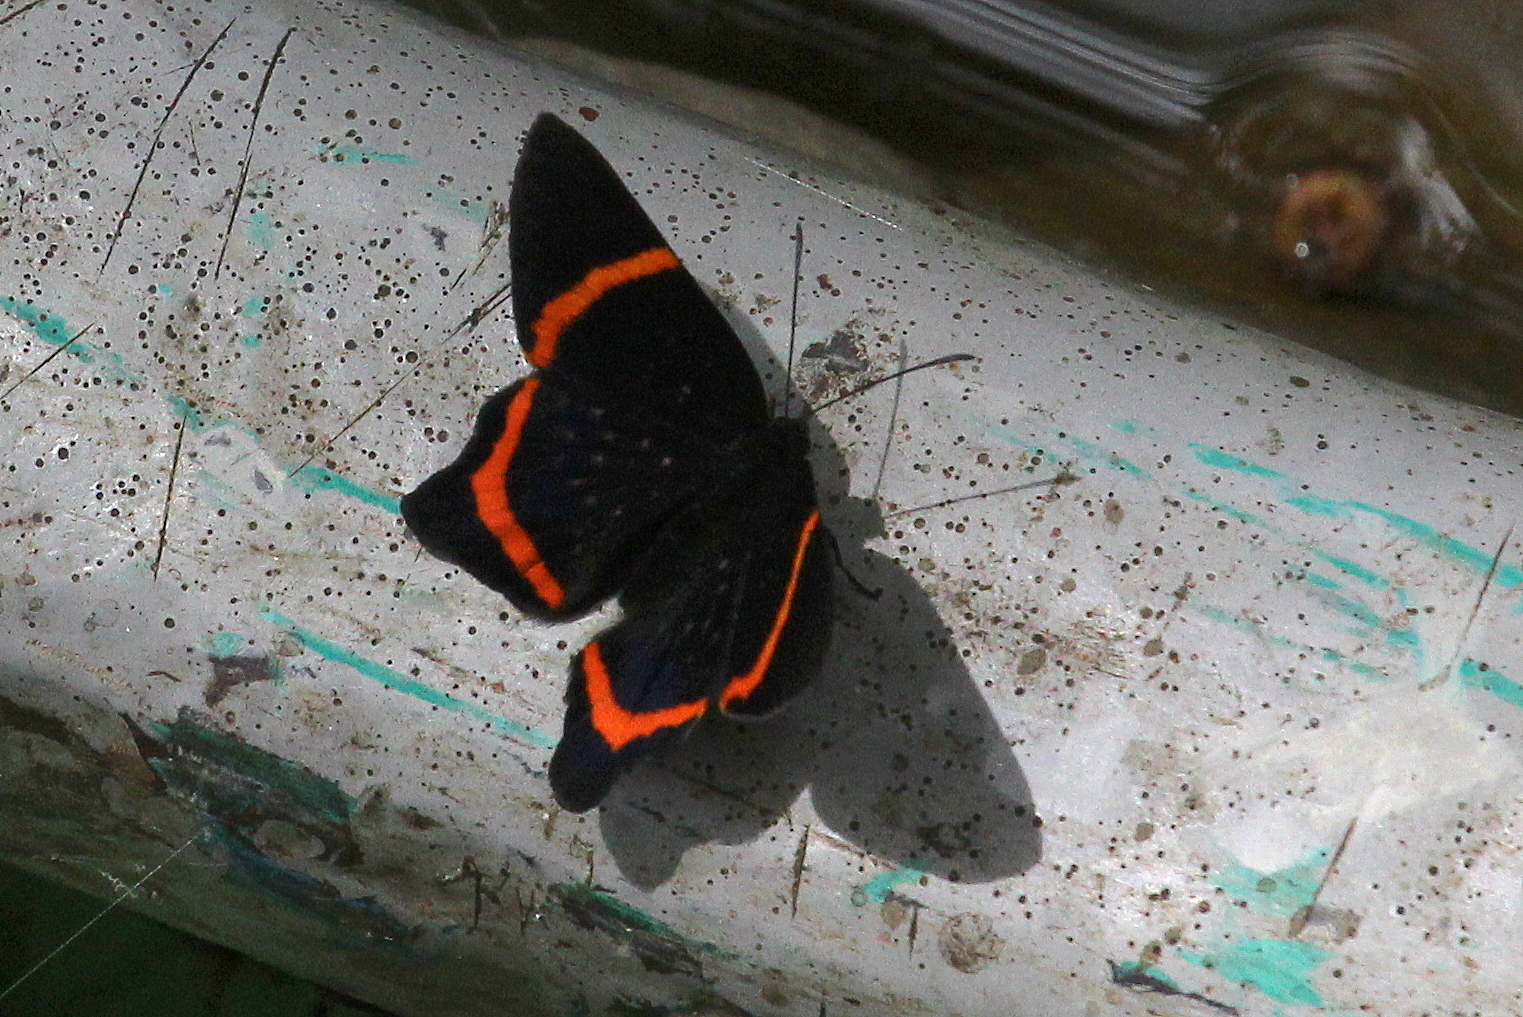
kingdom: Animalia
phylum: Arthropoda
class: Insecta
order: Lepidoptera
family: Riodinidae
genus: Riodina
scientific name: Riodina lysippus
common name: Lysippus metalmark
